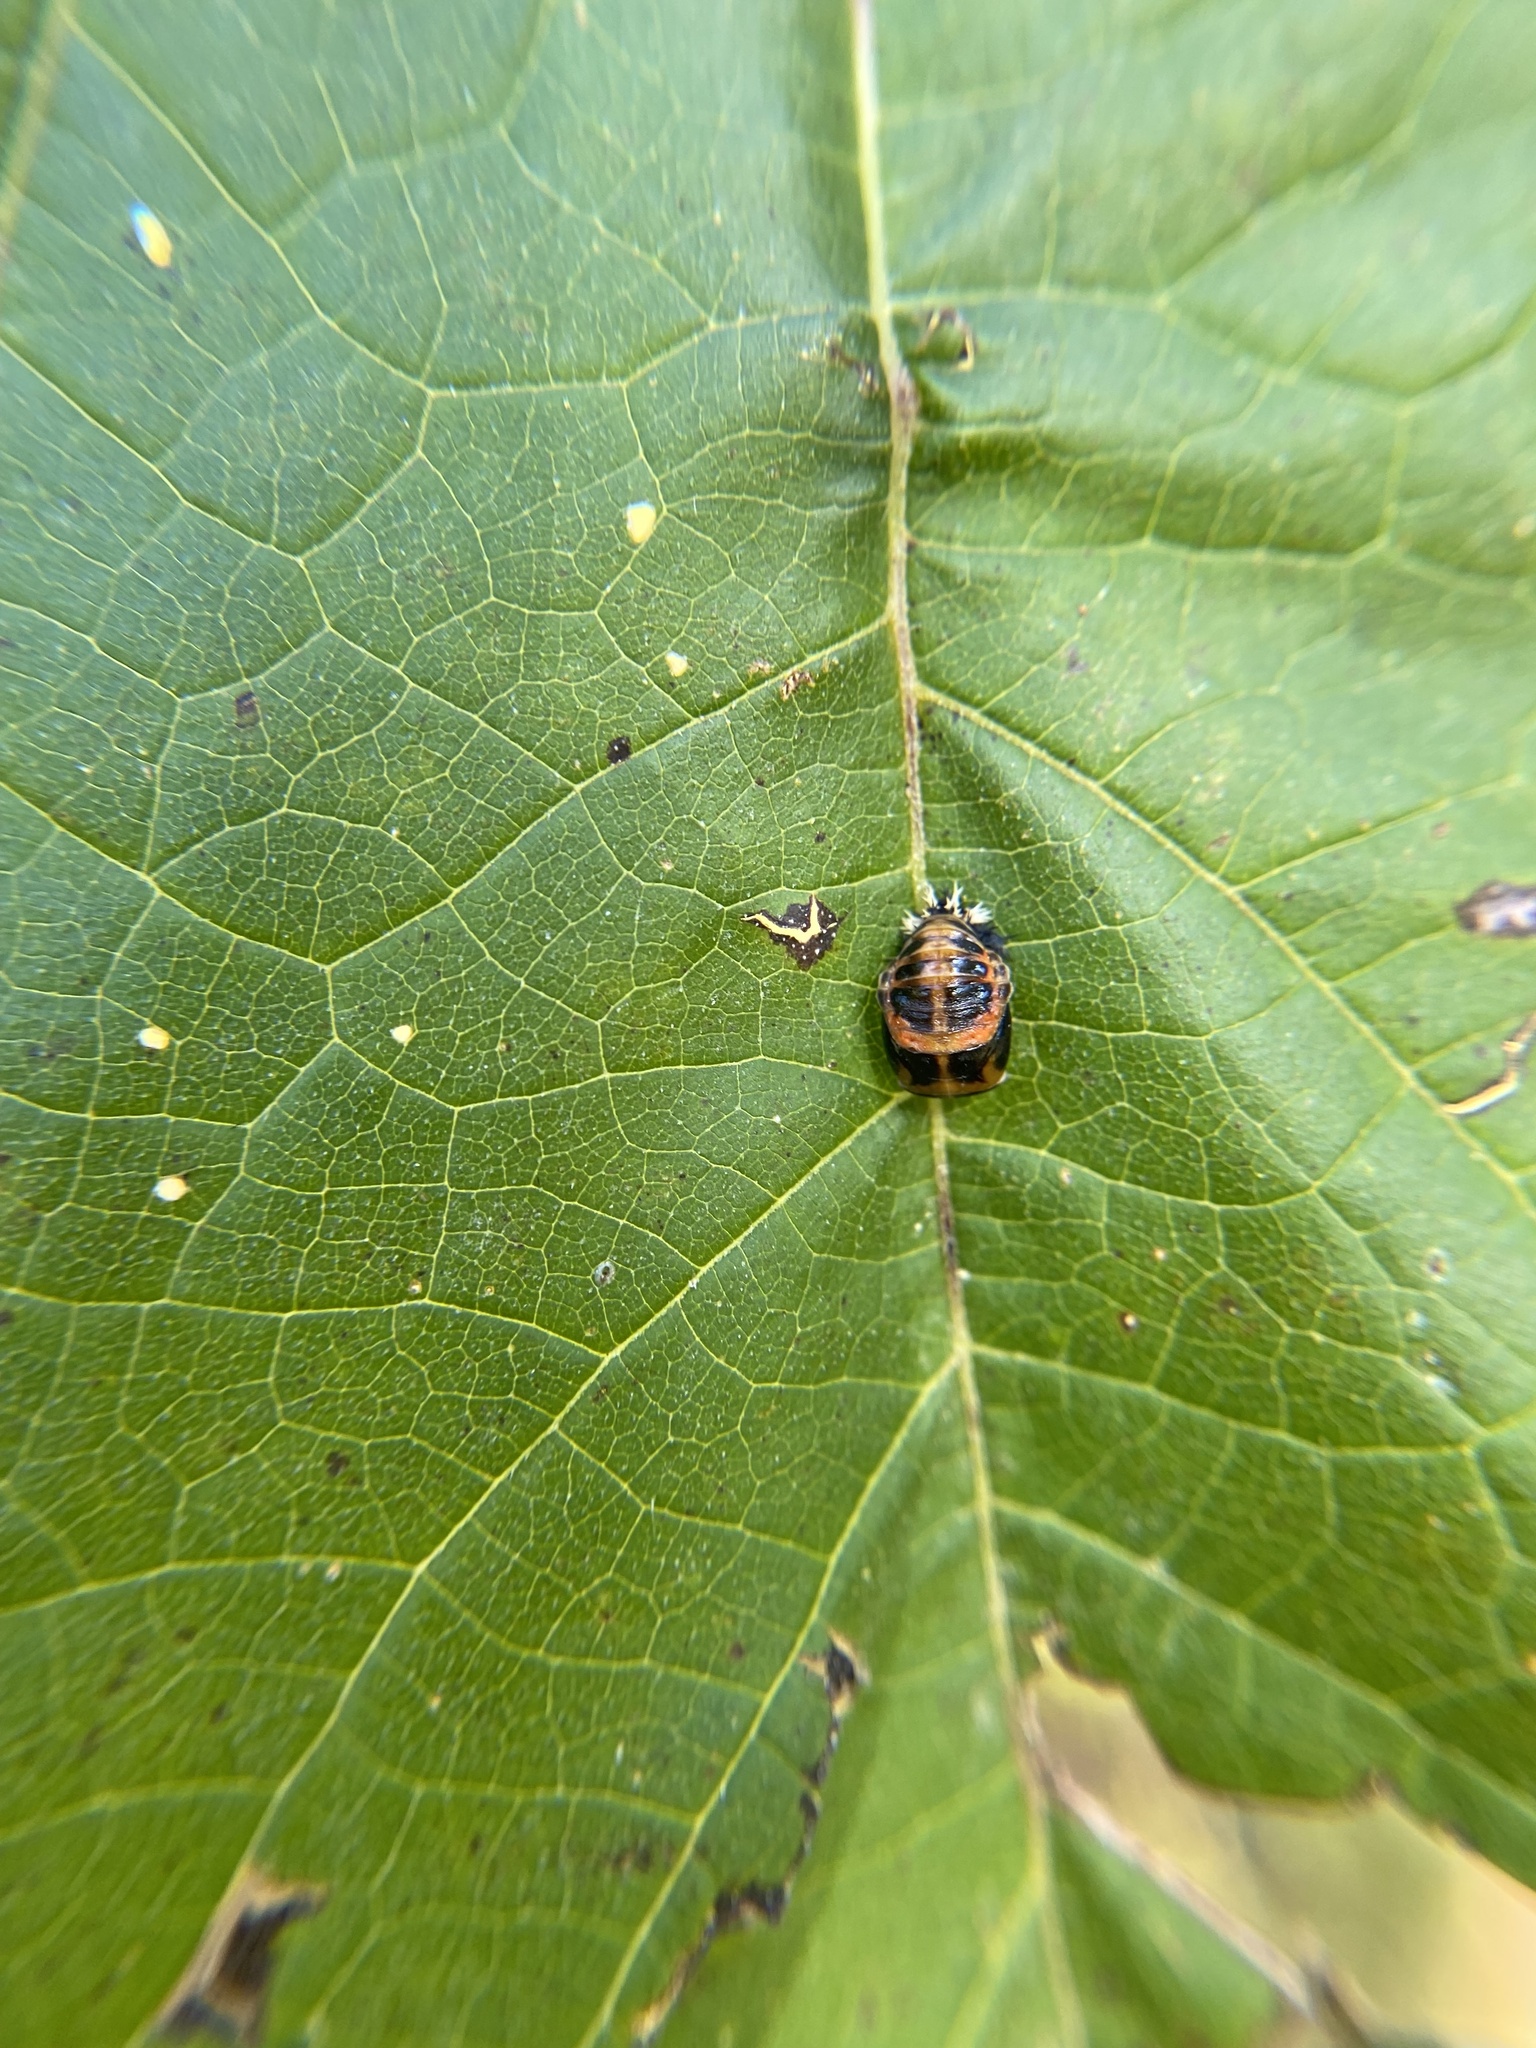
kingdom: Animalia
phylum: Arthropoda
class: Insecta
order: Coleoptera
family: Coccinellidae
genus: Harmonia
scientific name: Harmonia axyridis
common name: Harlequin ladybird
